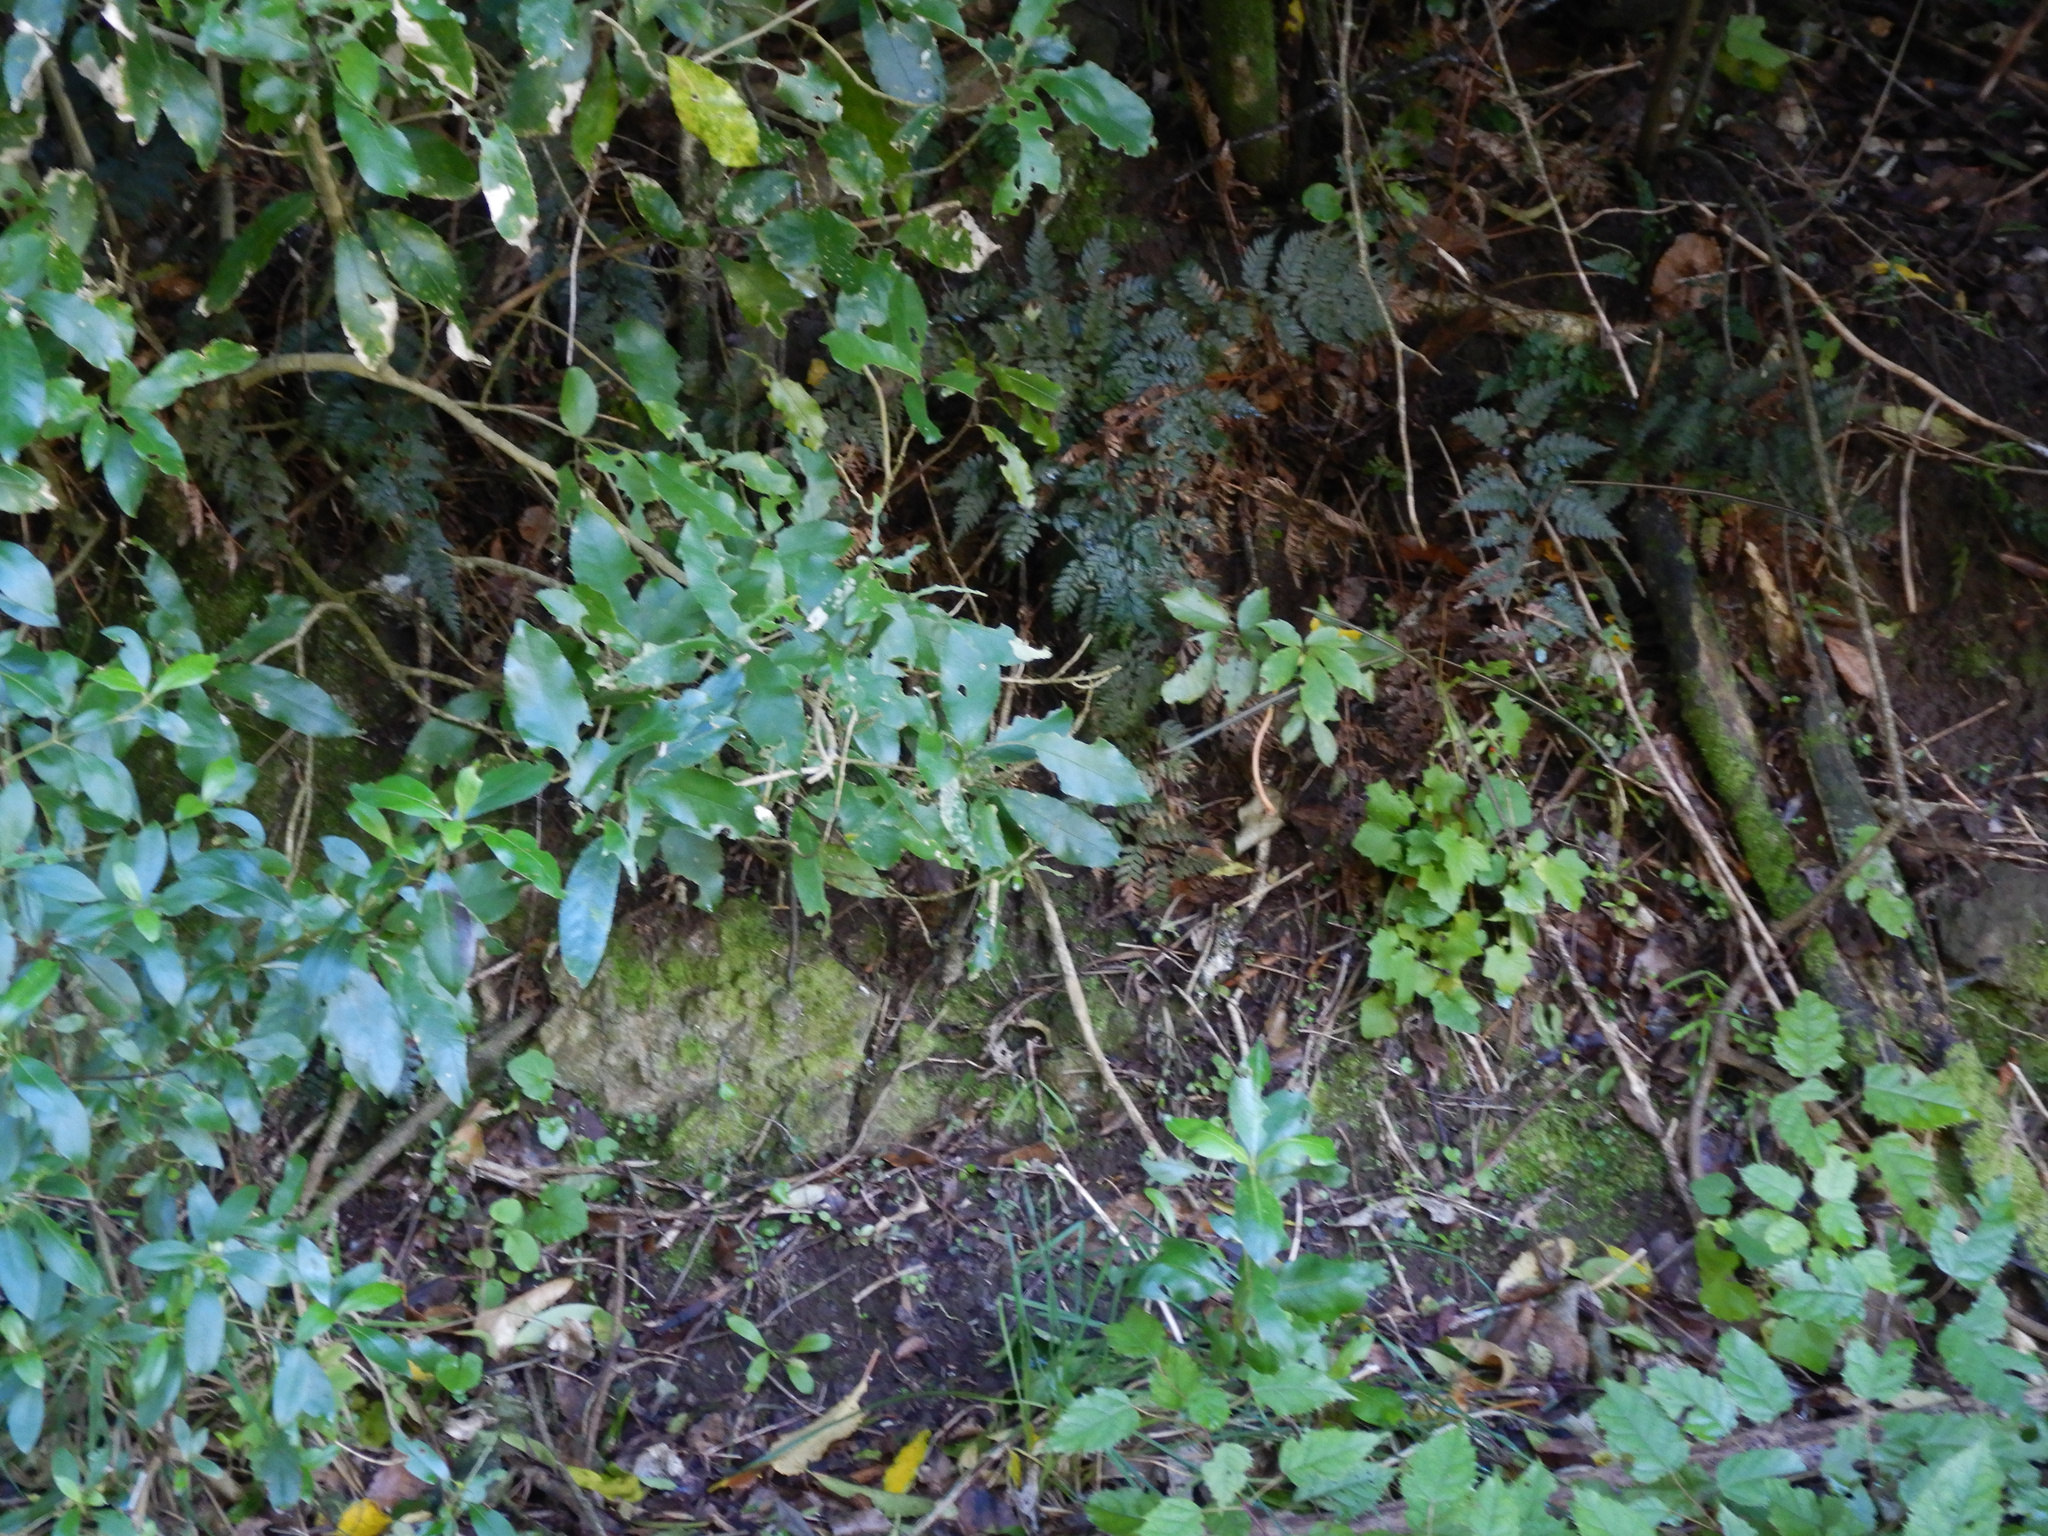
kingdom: Plantae
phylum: Tracheophyta
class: Magnoliopsida
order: Asterales
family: Asteraceae
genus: Mycelis
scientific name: Mycelis muralis
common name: Wall lettuce
